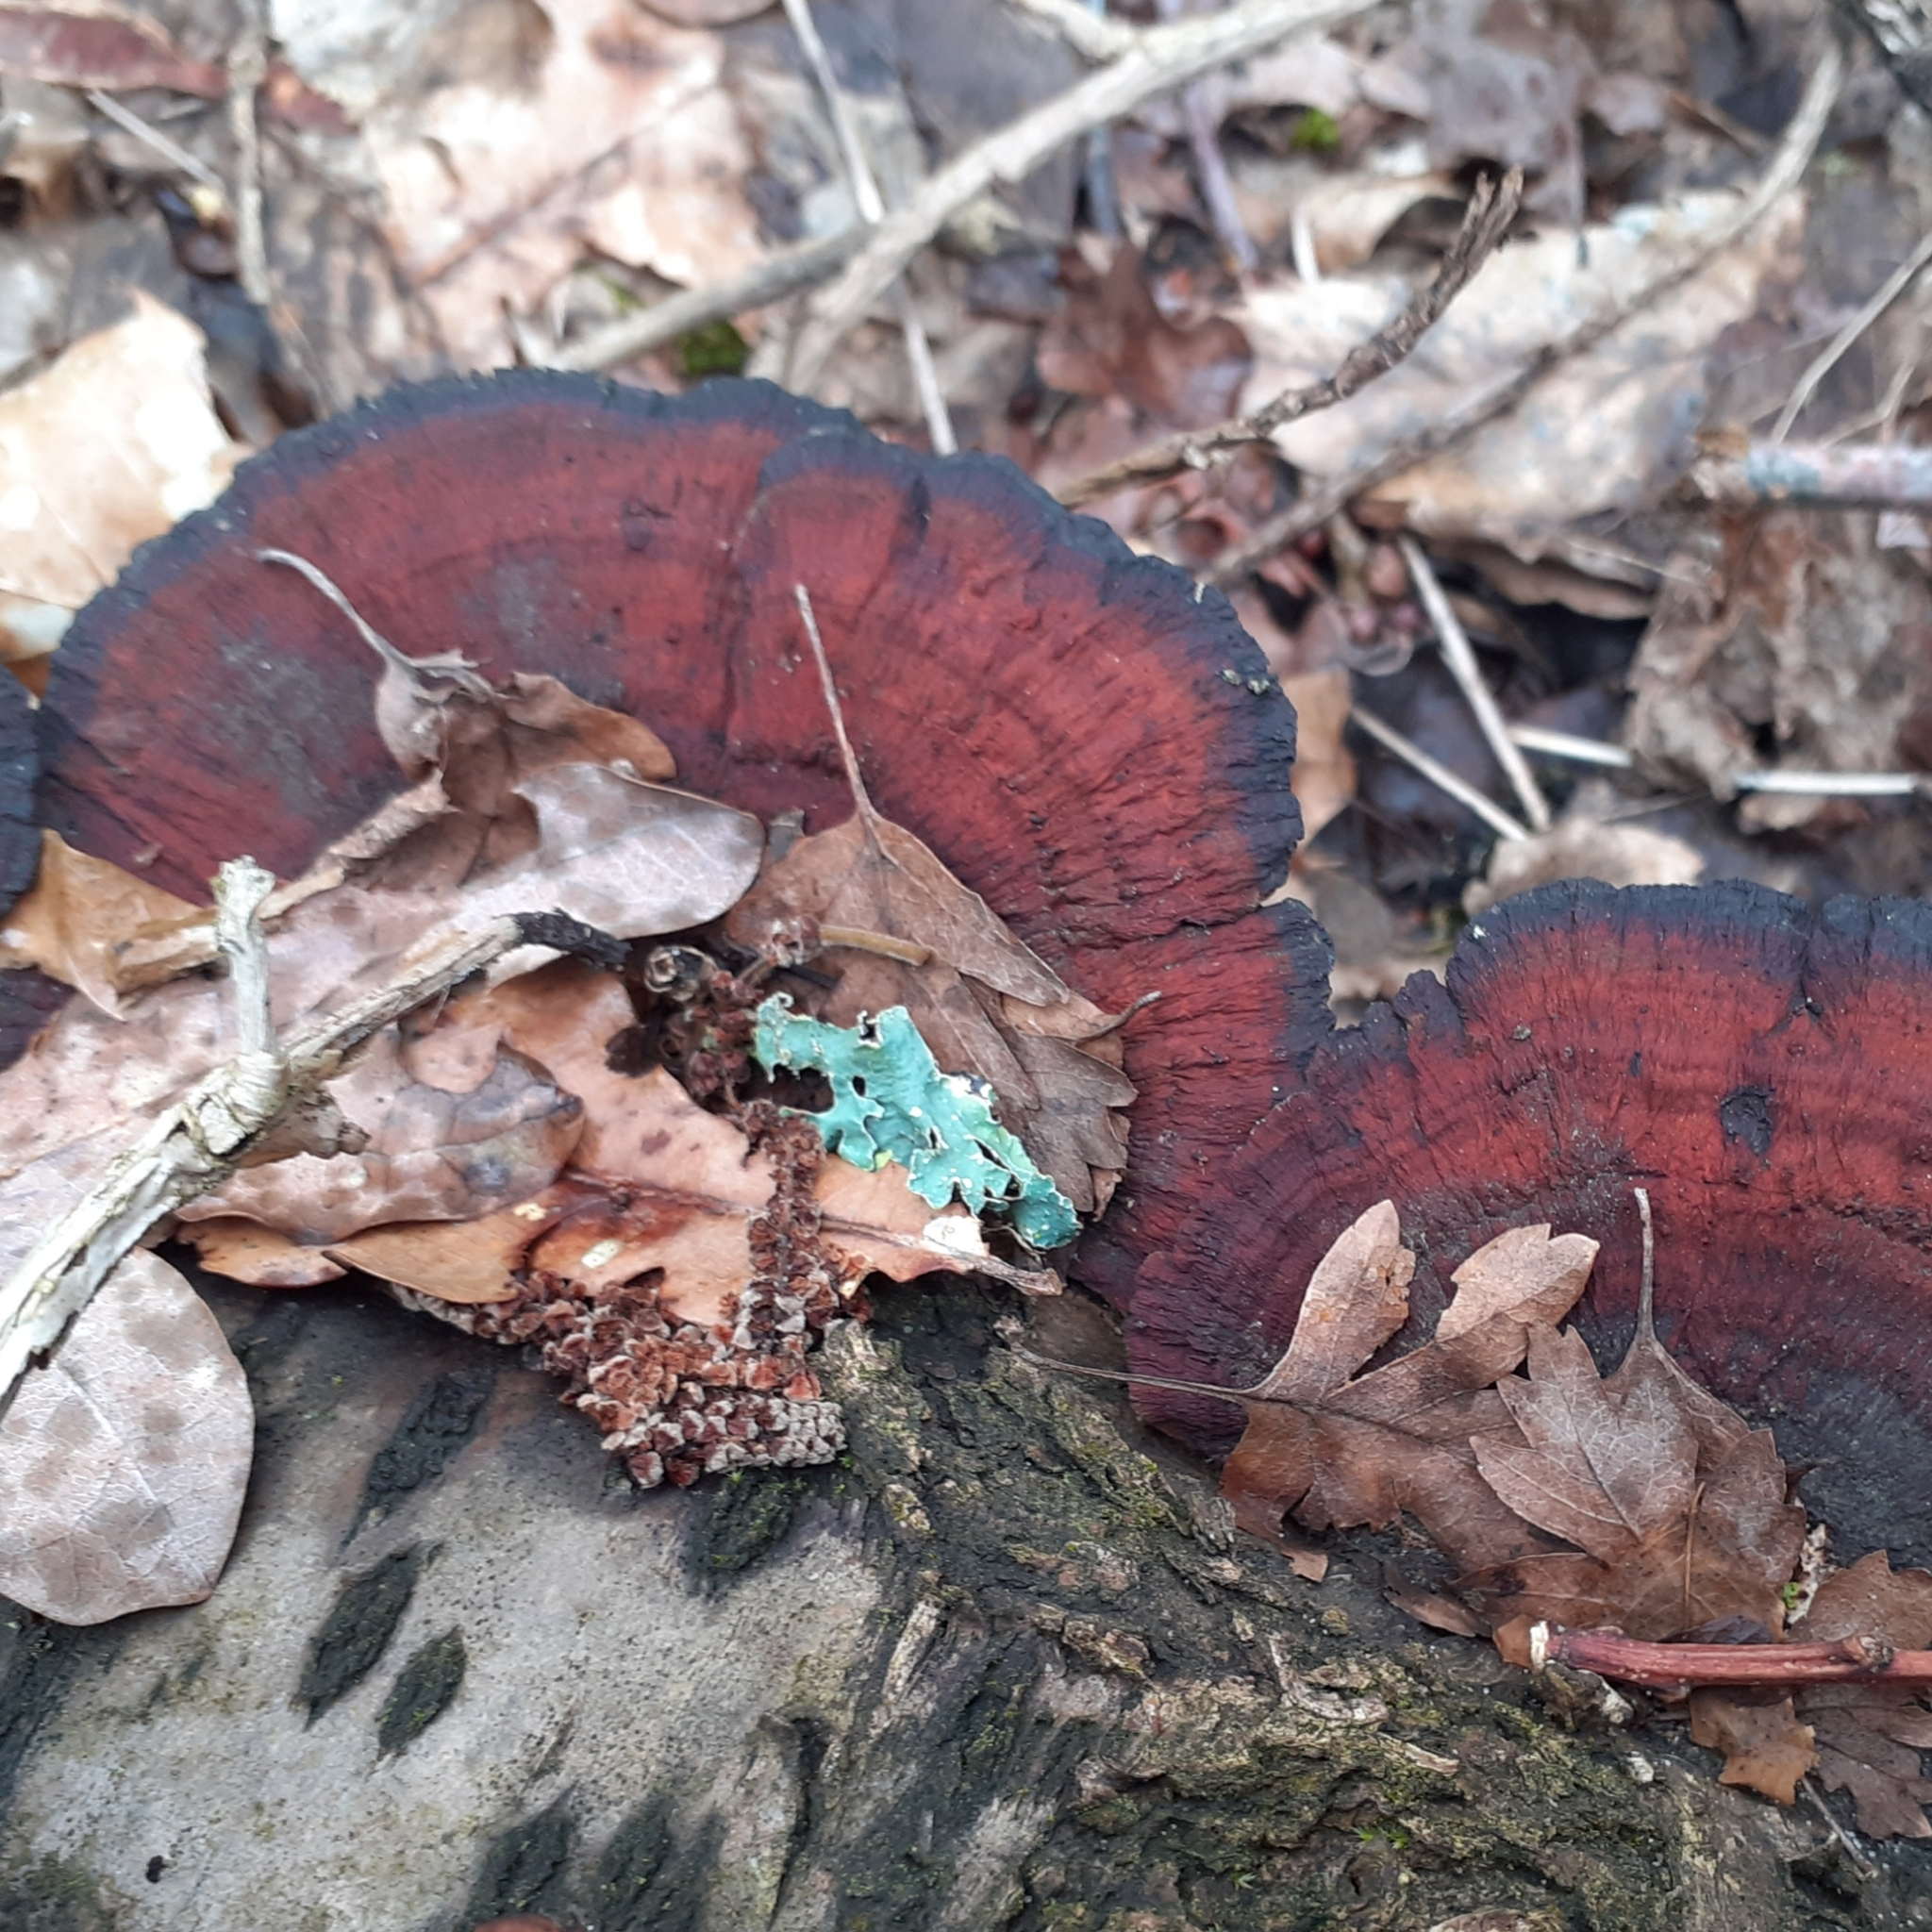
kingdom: Fungi
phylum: Basidiomycota
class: Agaricomycetes
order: Polyporales
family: Polyporaceae
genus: Daedaleopsis
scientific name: Daedaleopsis tricolor
